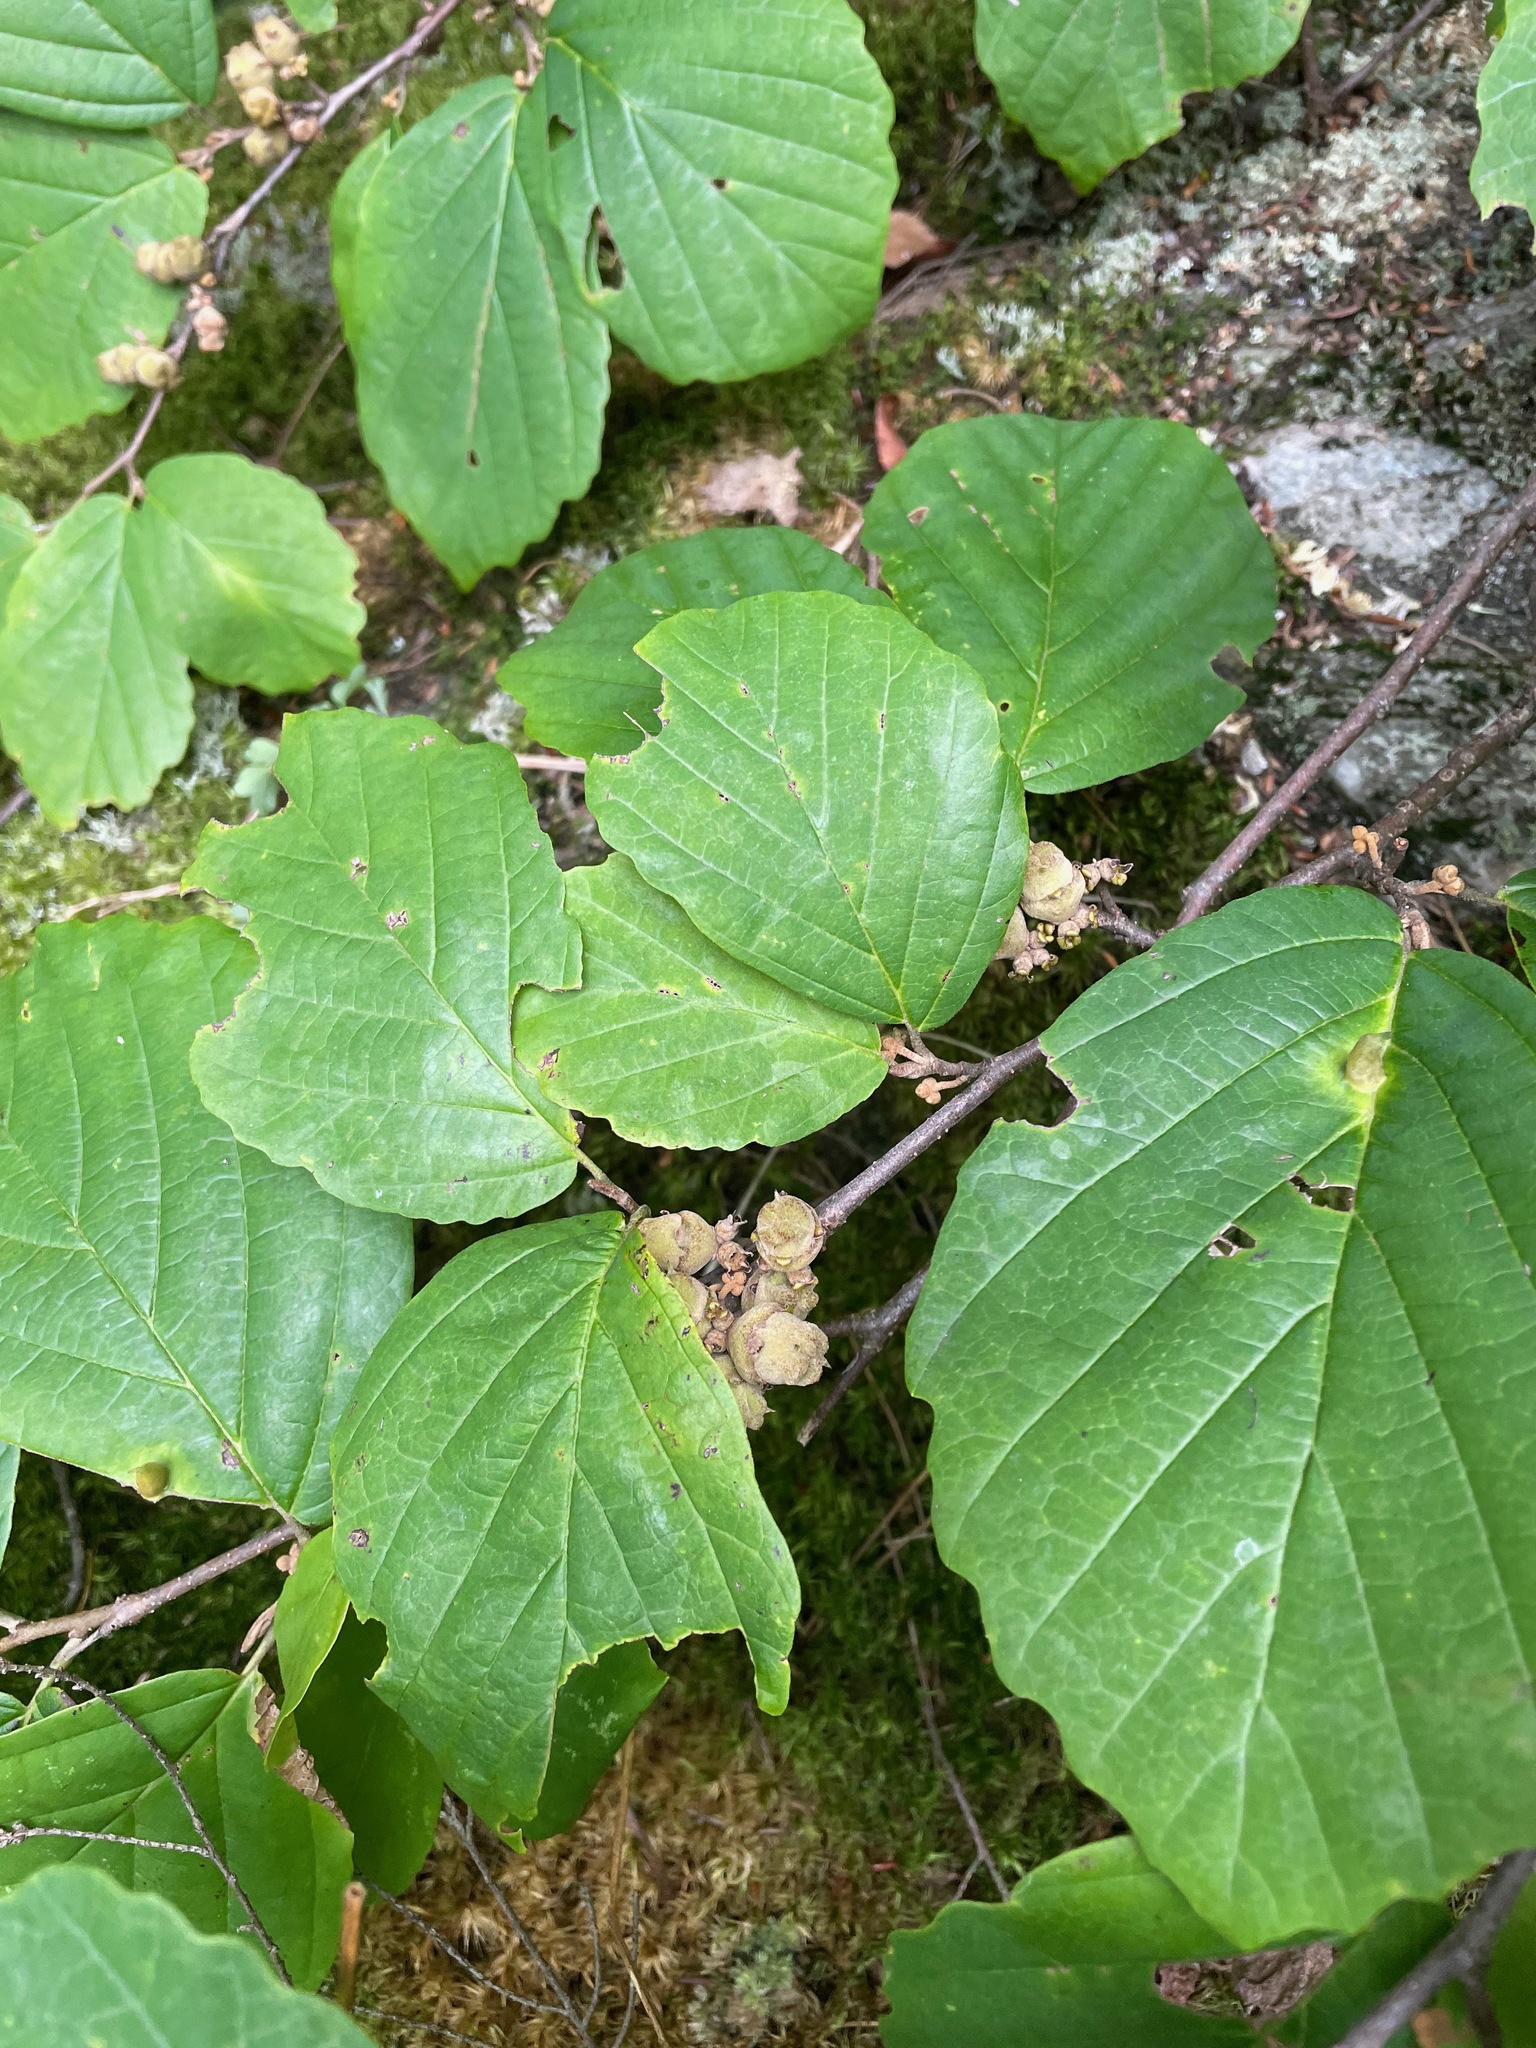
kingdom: Plantae
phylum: Tracheophyta
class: Magnoliopsida
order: Saxifragales
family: Hamamelidaceae
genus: Hamamelis
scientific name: Hamamelis virginiana
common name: Witch-hazel
